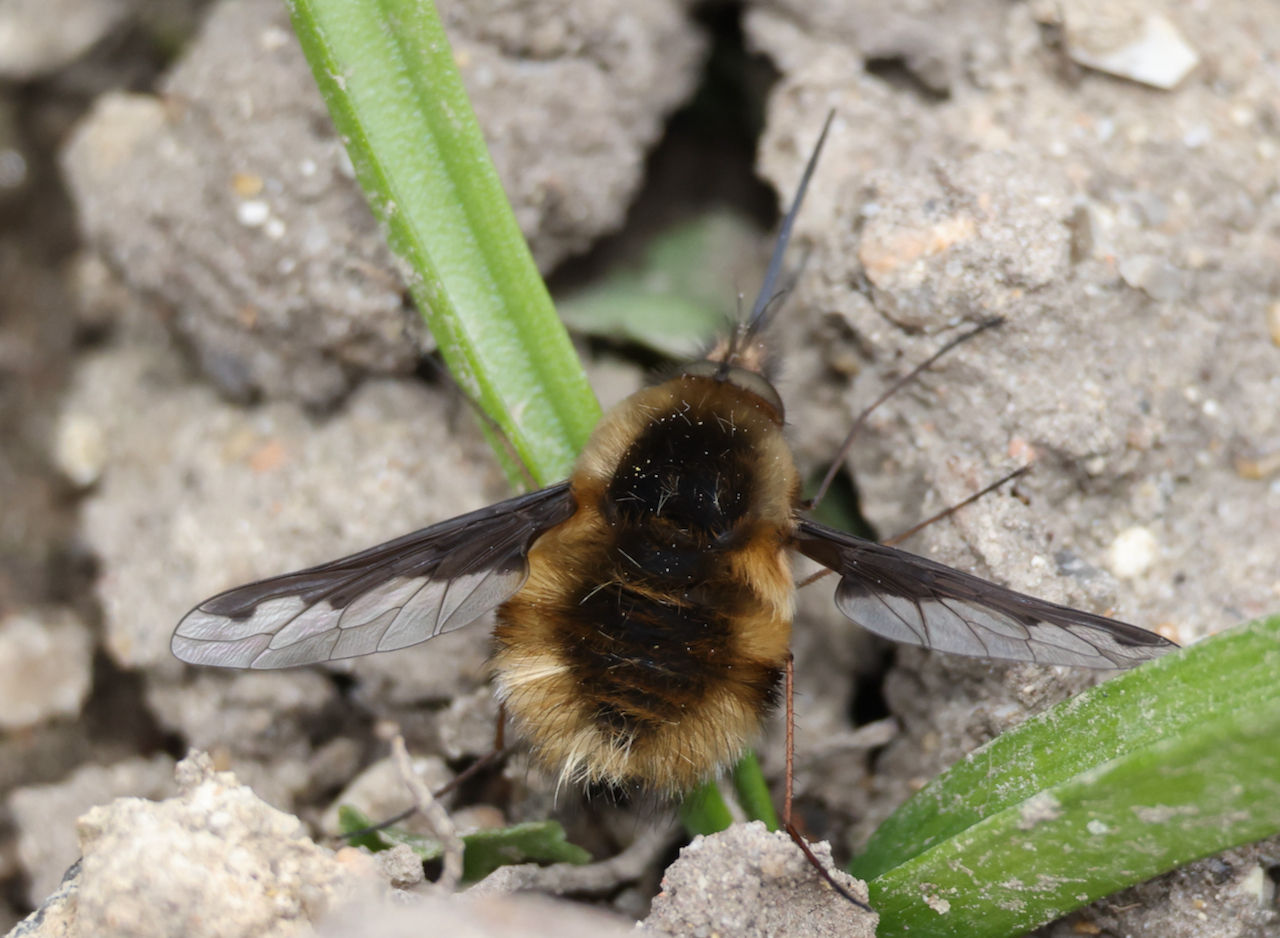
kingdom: Animalia
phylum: Arthropoda
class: Insecta
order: Diptera
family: Bombyliidae
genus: Bombylius
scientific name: Bombylius major
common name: Bee fly
